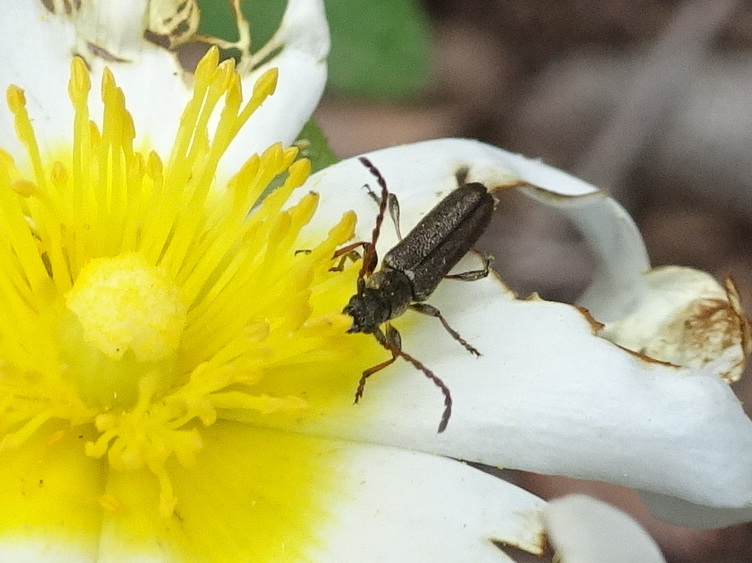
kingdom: Animalia
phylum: Arthropoda
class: Insecta
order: Coleoptera
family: Cerambycidae
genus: Deilus
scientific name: Deilus fugax
